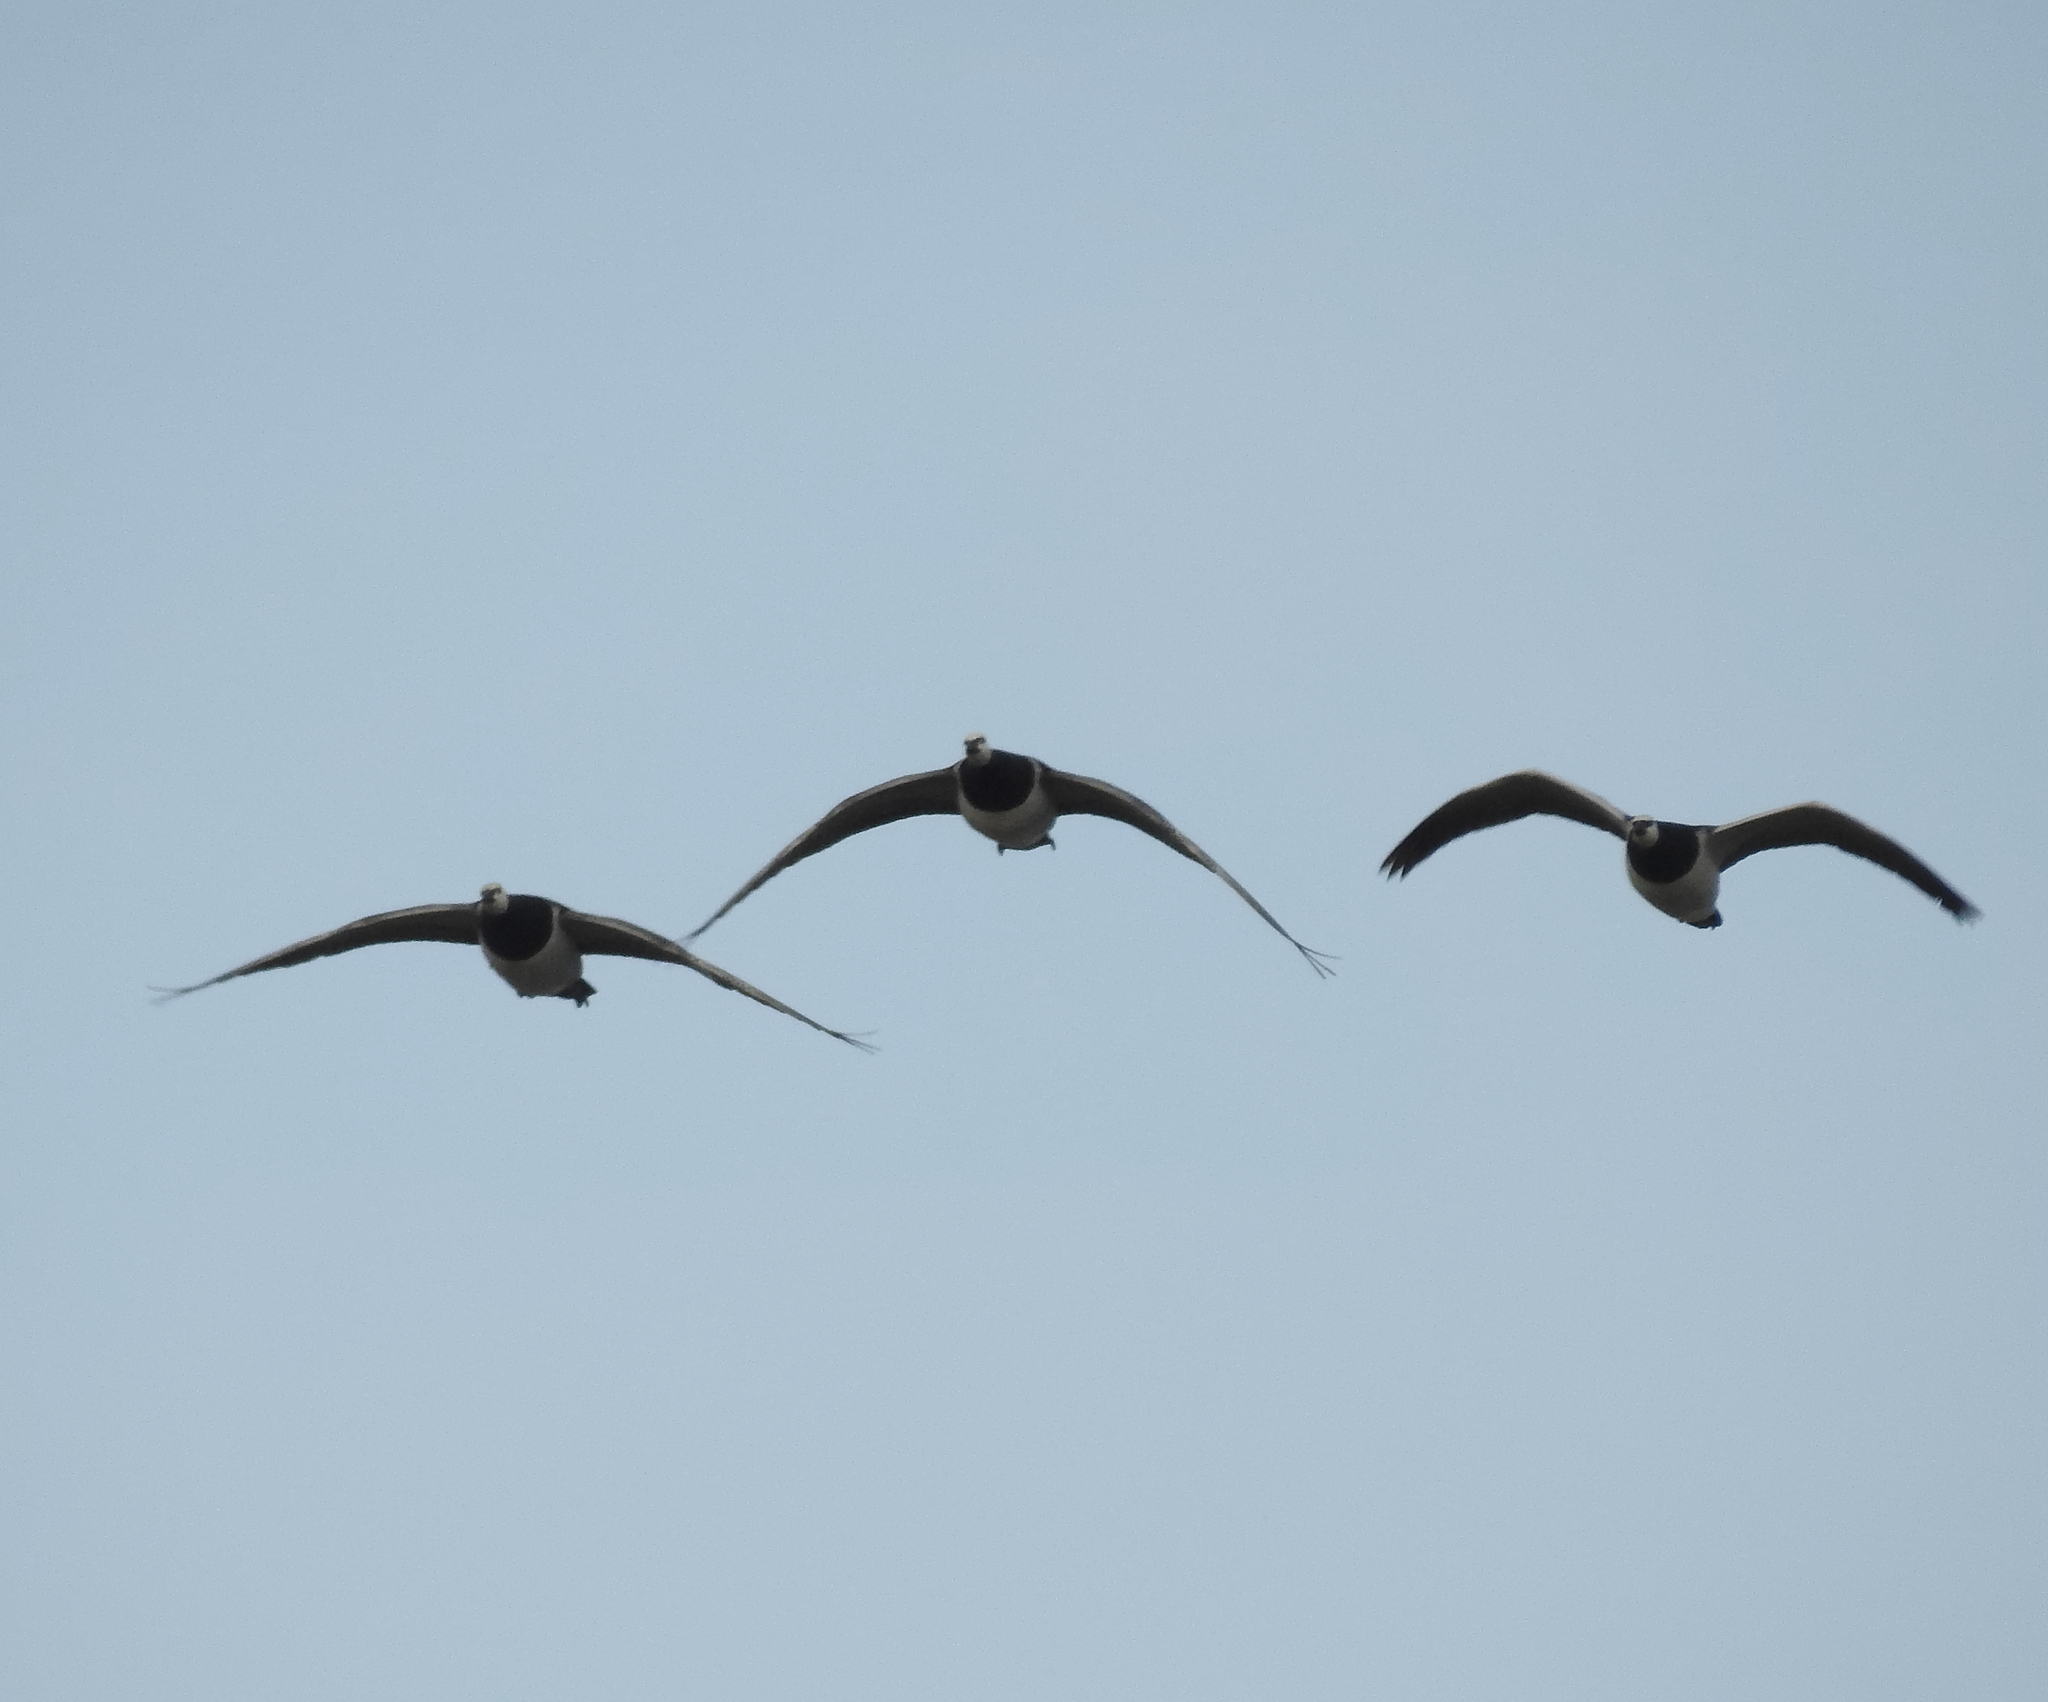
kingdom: Animalia
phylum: Chordata
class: Aves
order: Anseriformes
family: Anatidae
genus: Branta
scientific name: Branta leucopsis
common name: Barnacle goose
